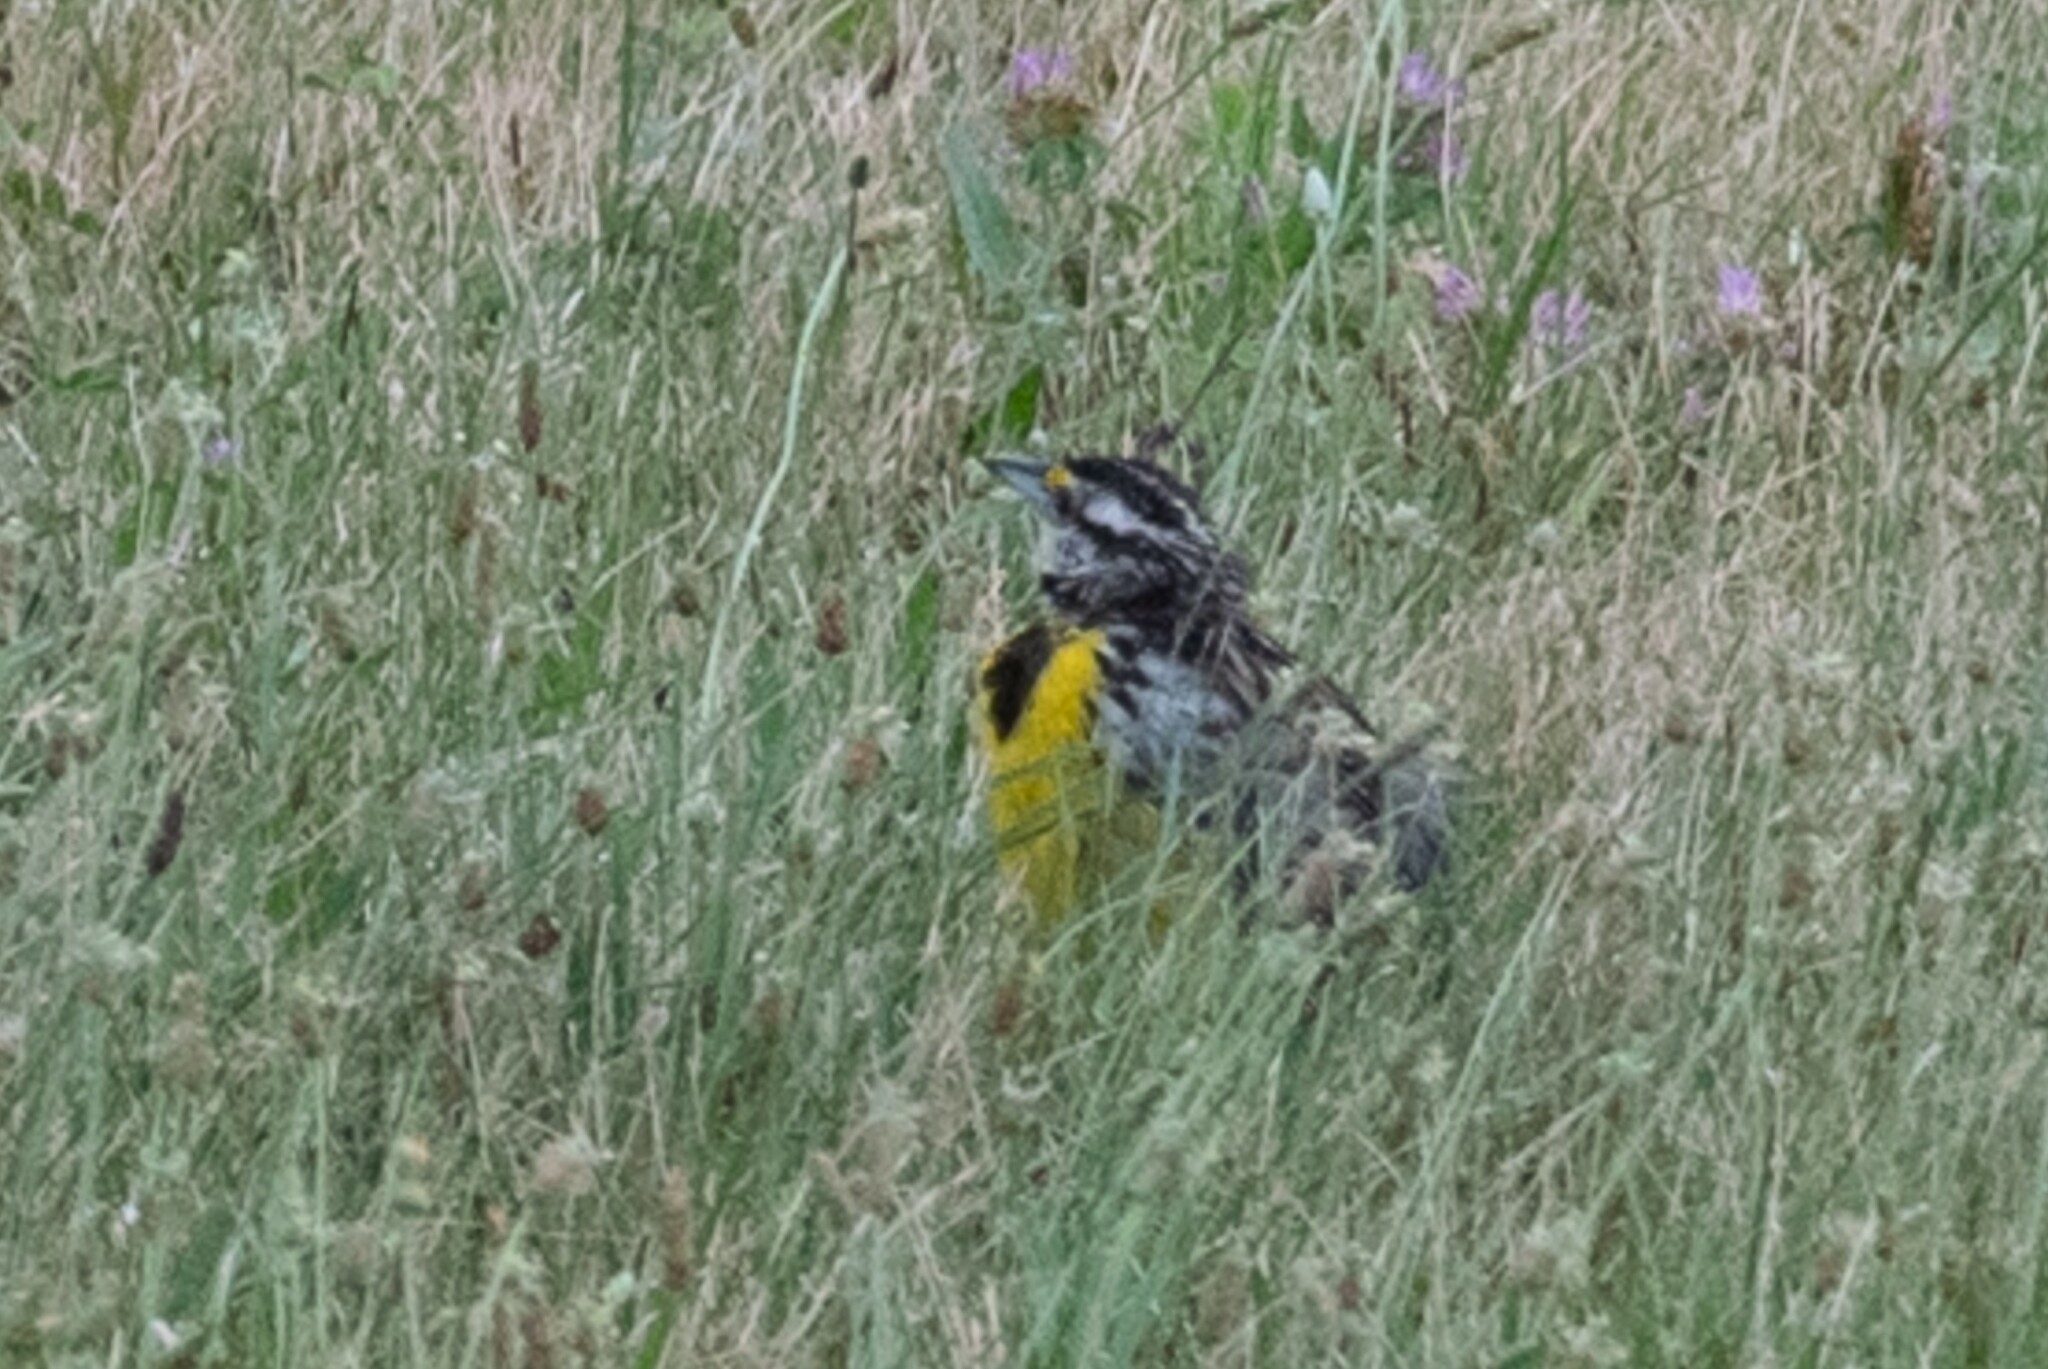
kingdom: Animalia
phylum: Chordata
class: Aves
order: Passeriformes
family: Icteridae
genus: Sturnella
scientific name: Sturnella magna
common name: Eastern meadowlark
